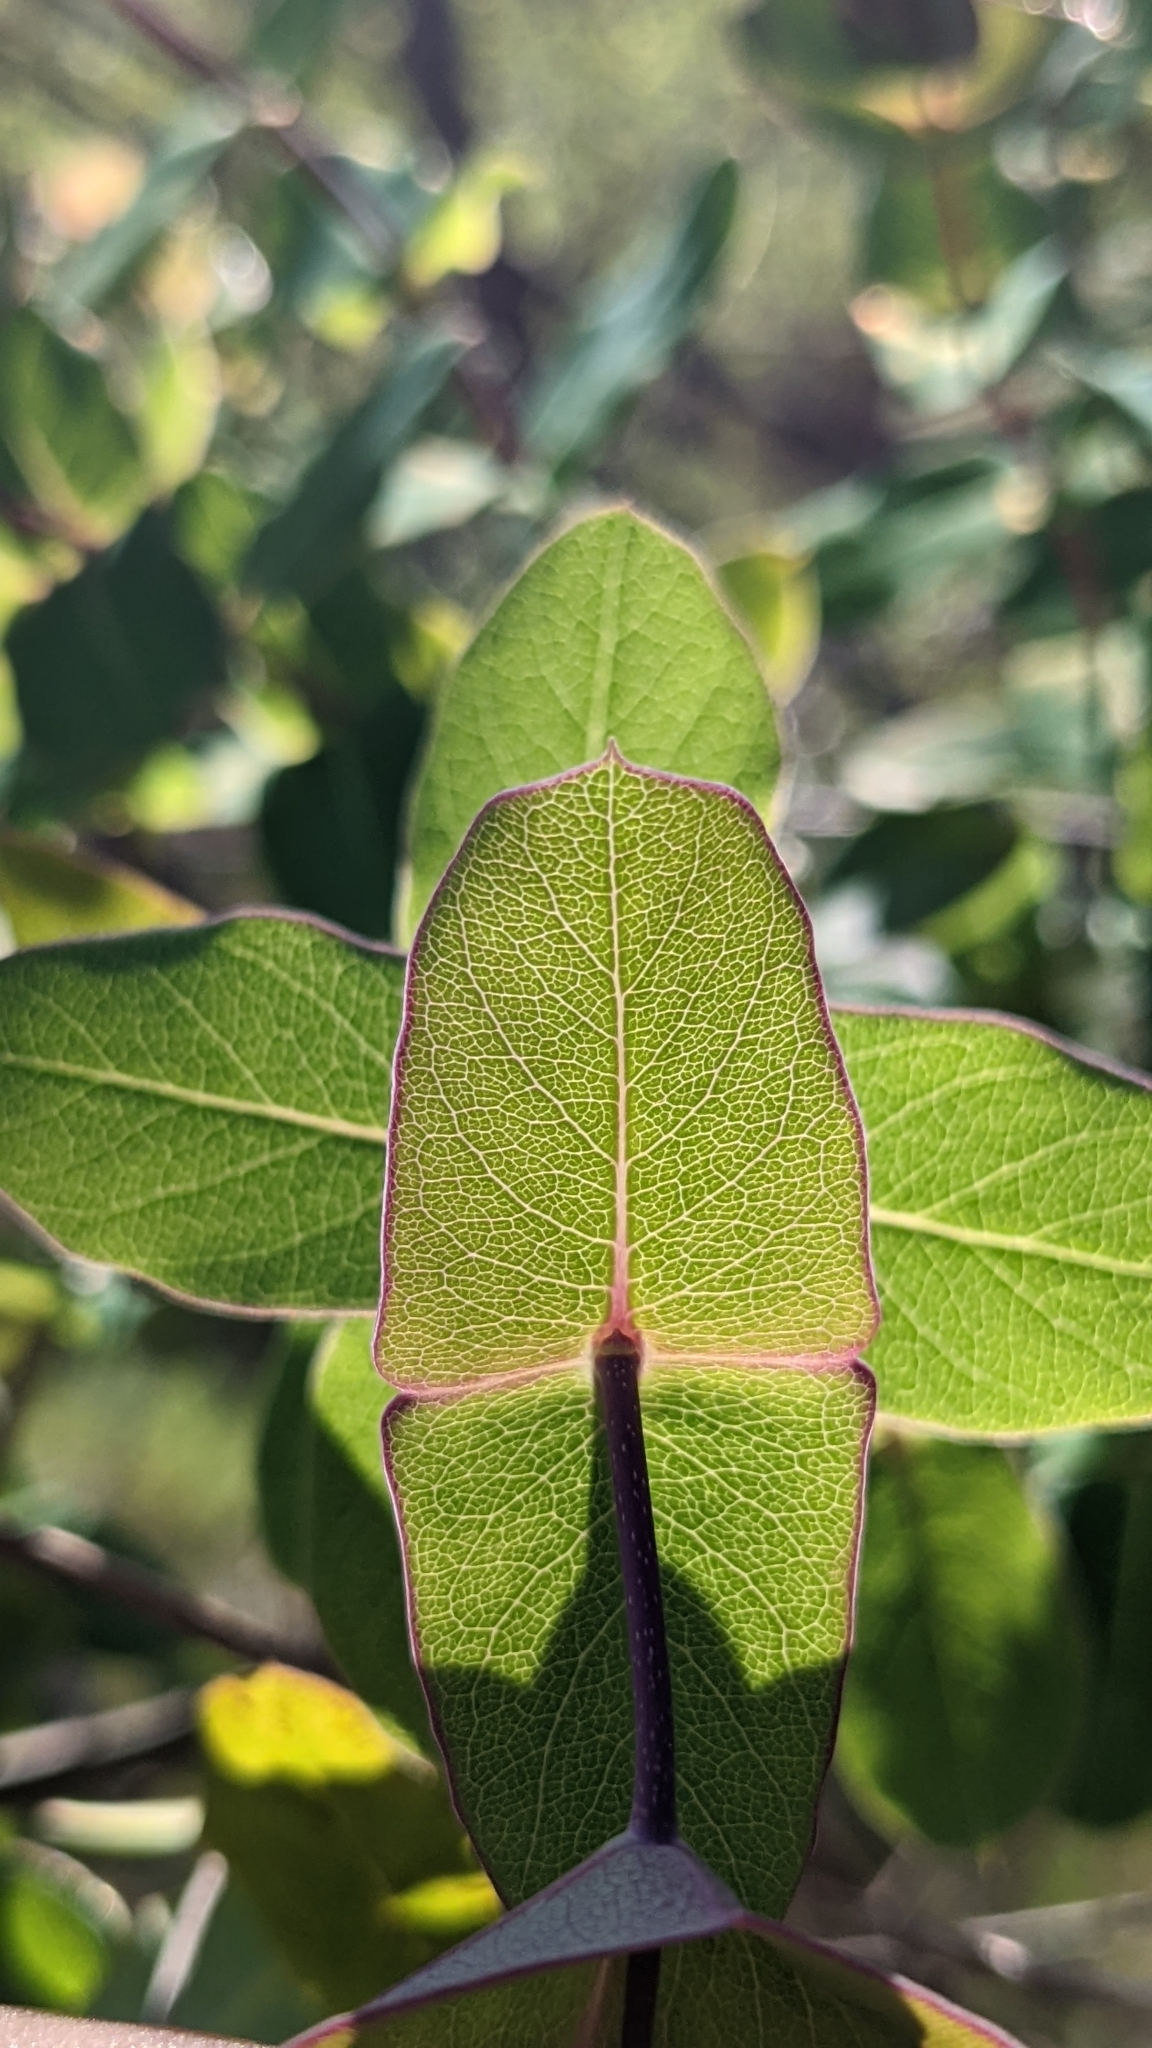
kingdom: Plantae
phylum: Tracheophyta
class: Magnoliopsida
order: Dipsacales
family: Caprifoliaceae
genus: Lonicera
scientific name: Lonicera implexa
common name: Minorca honeysuckle
